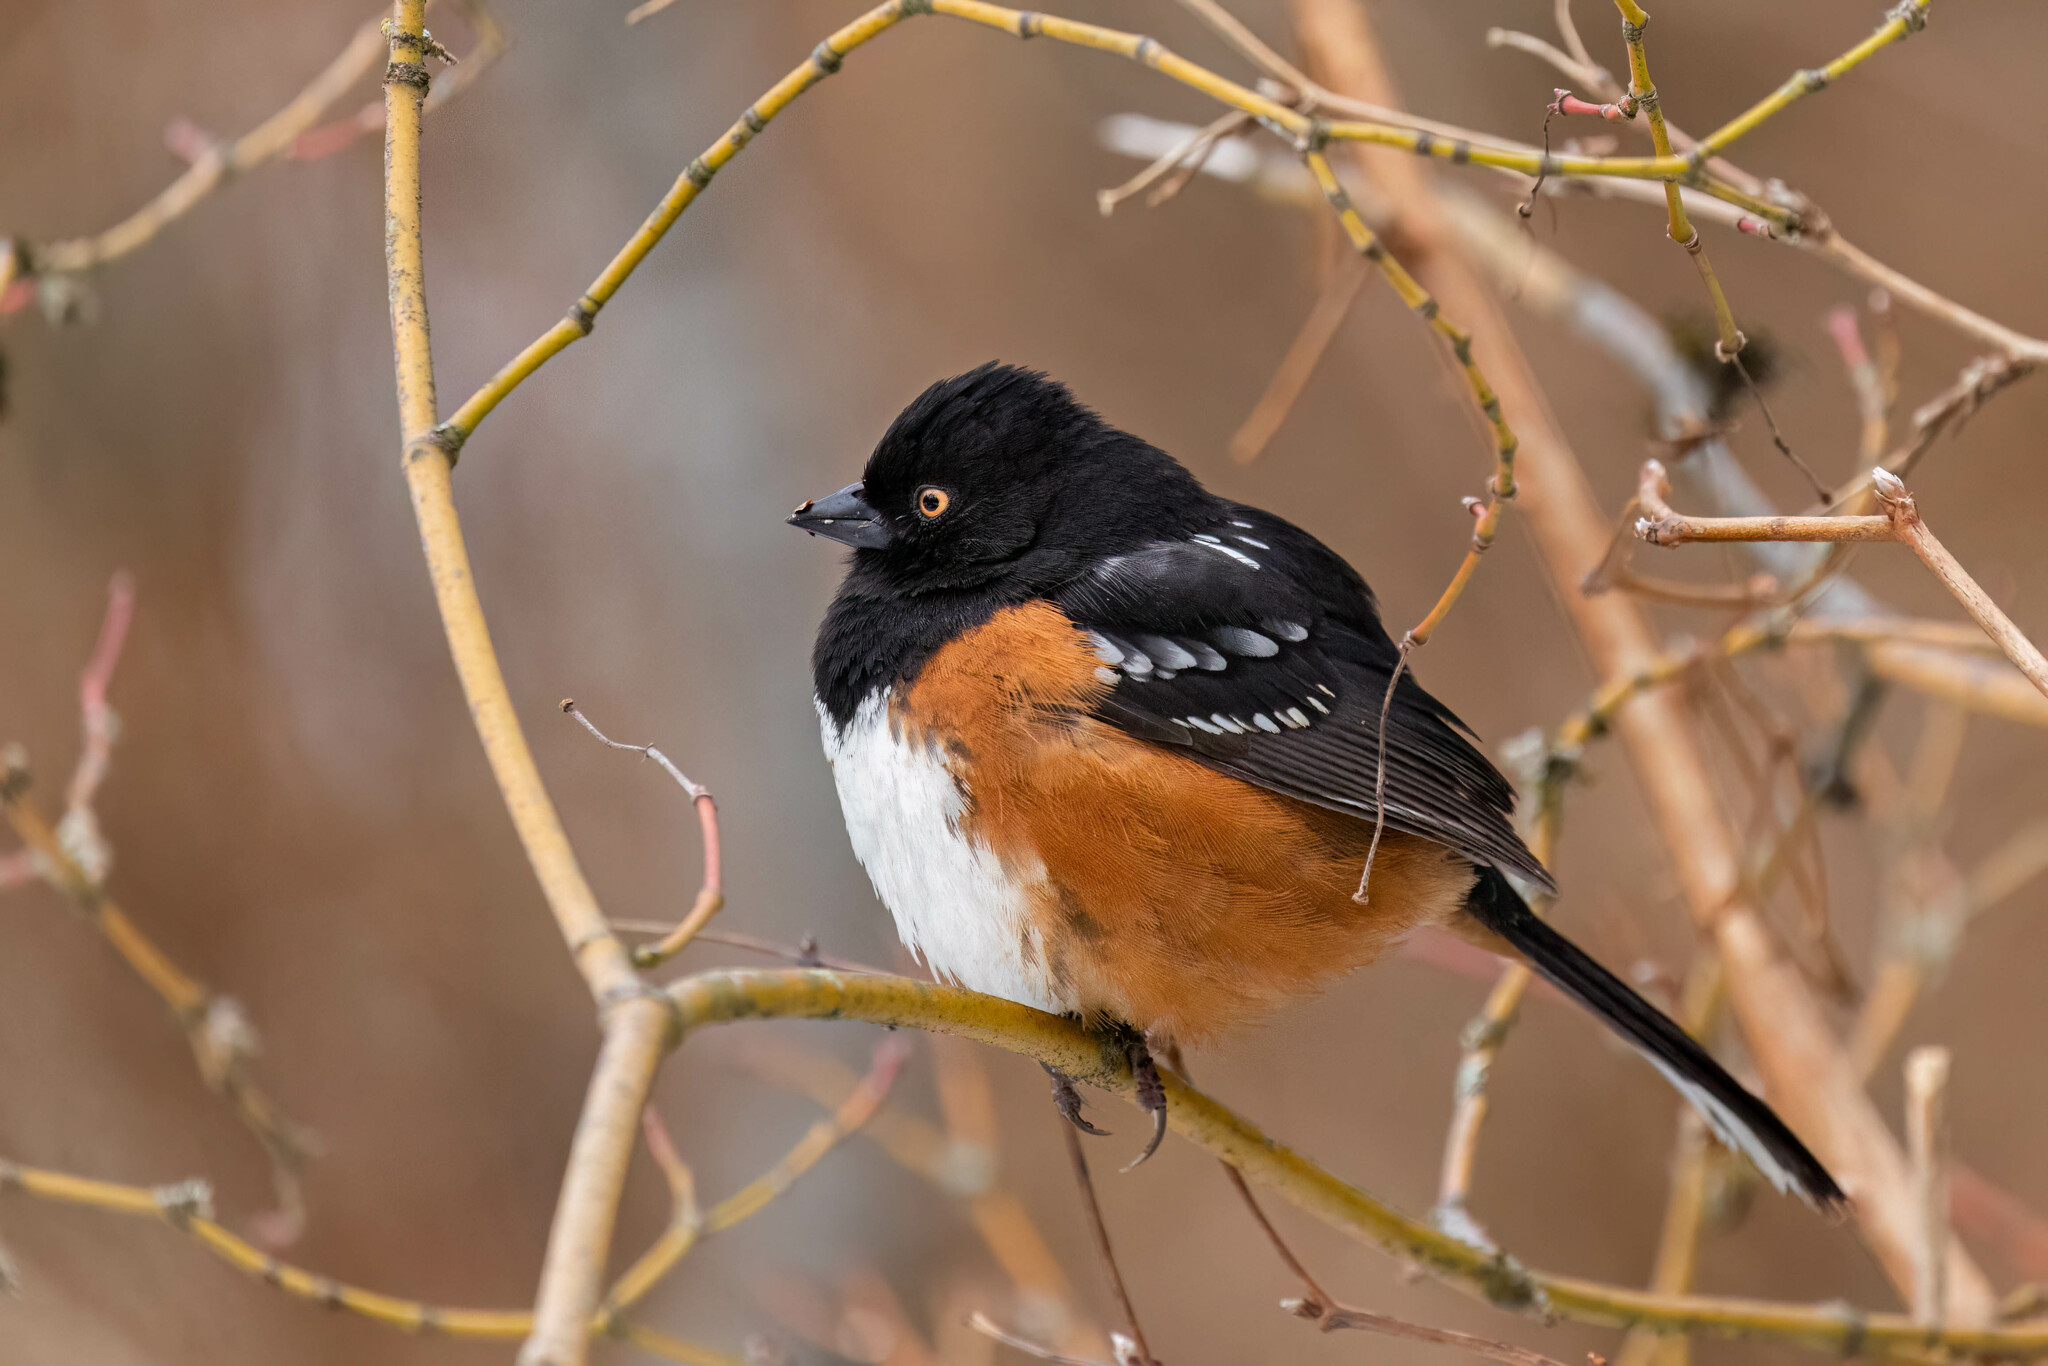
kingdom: Animalia
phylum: Chordata
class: Aves
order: Passeriformes
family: Passerellidae
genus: Pipilo
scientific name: Pipilo maculatus
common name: Spotted towhee
